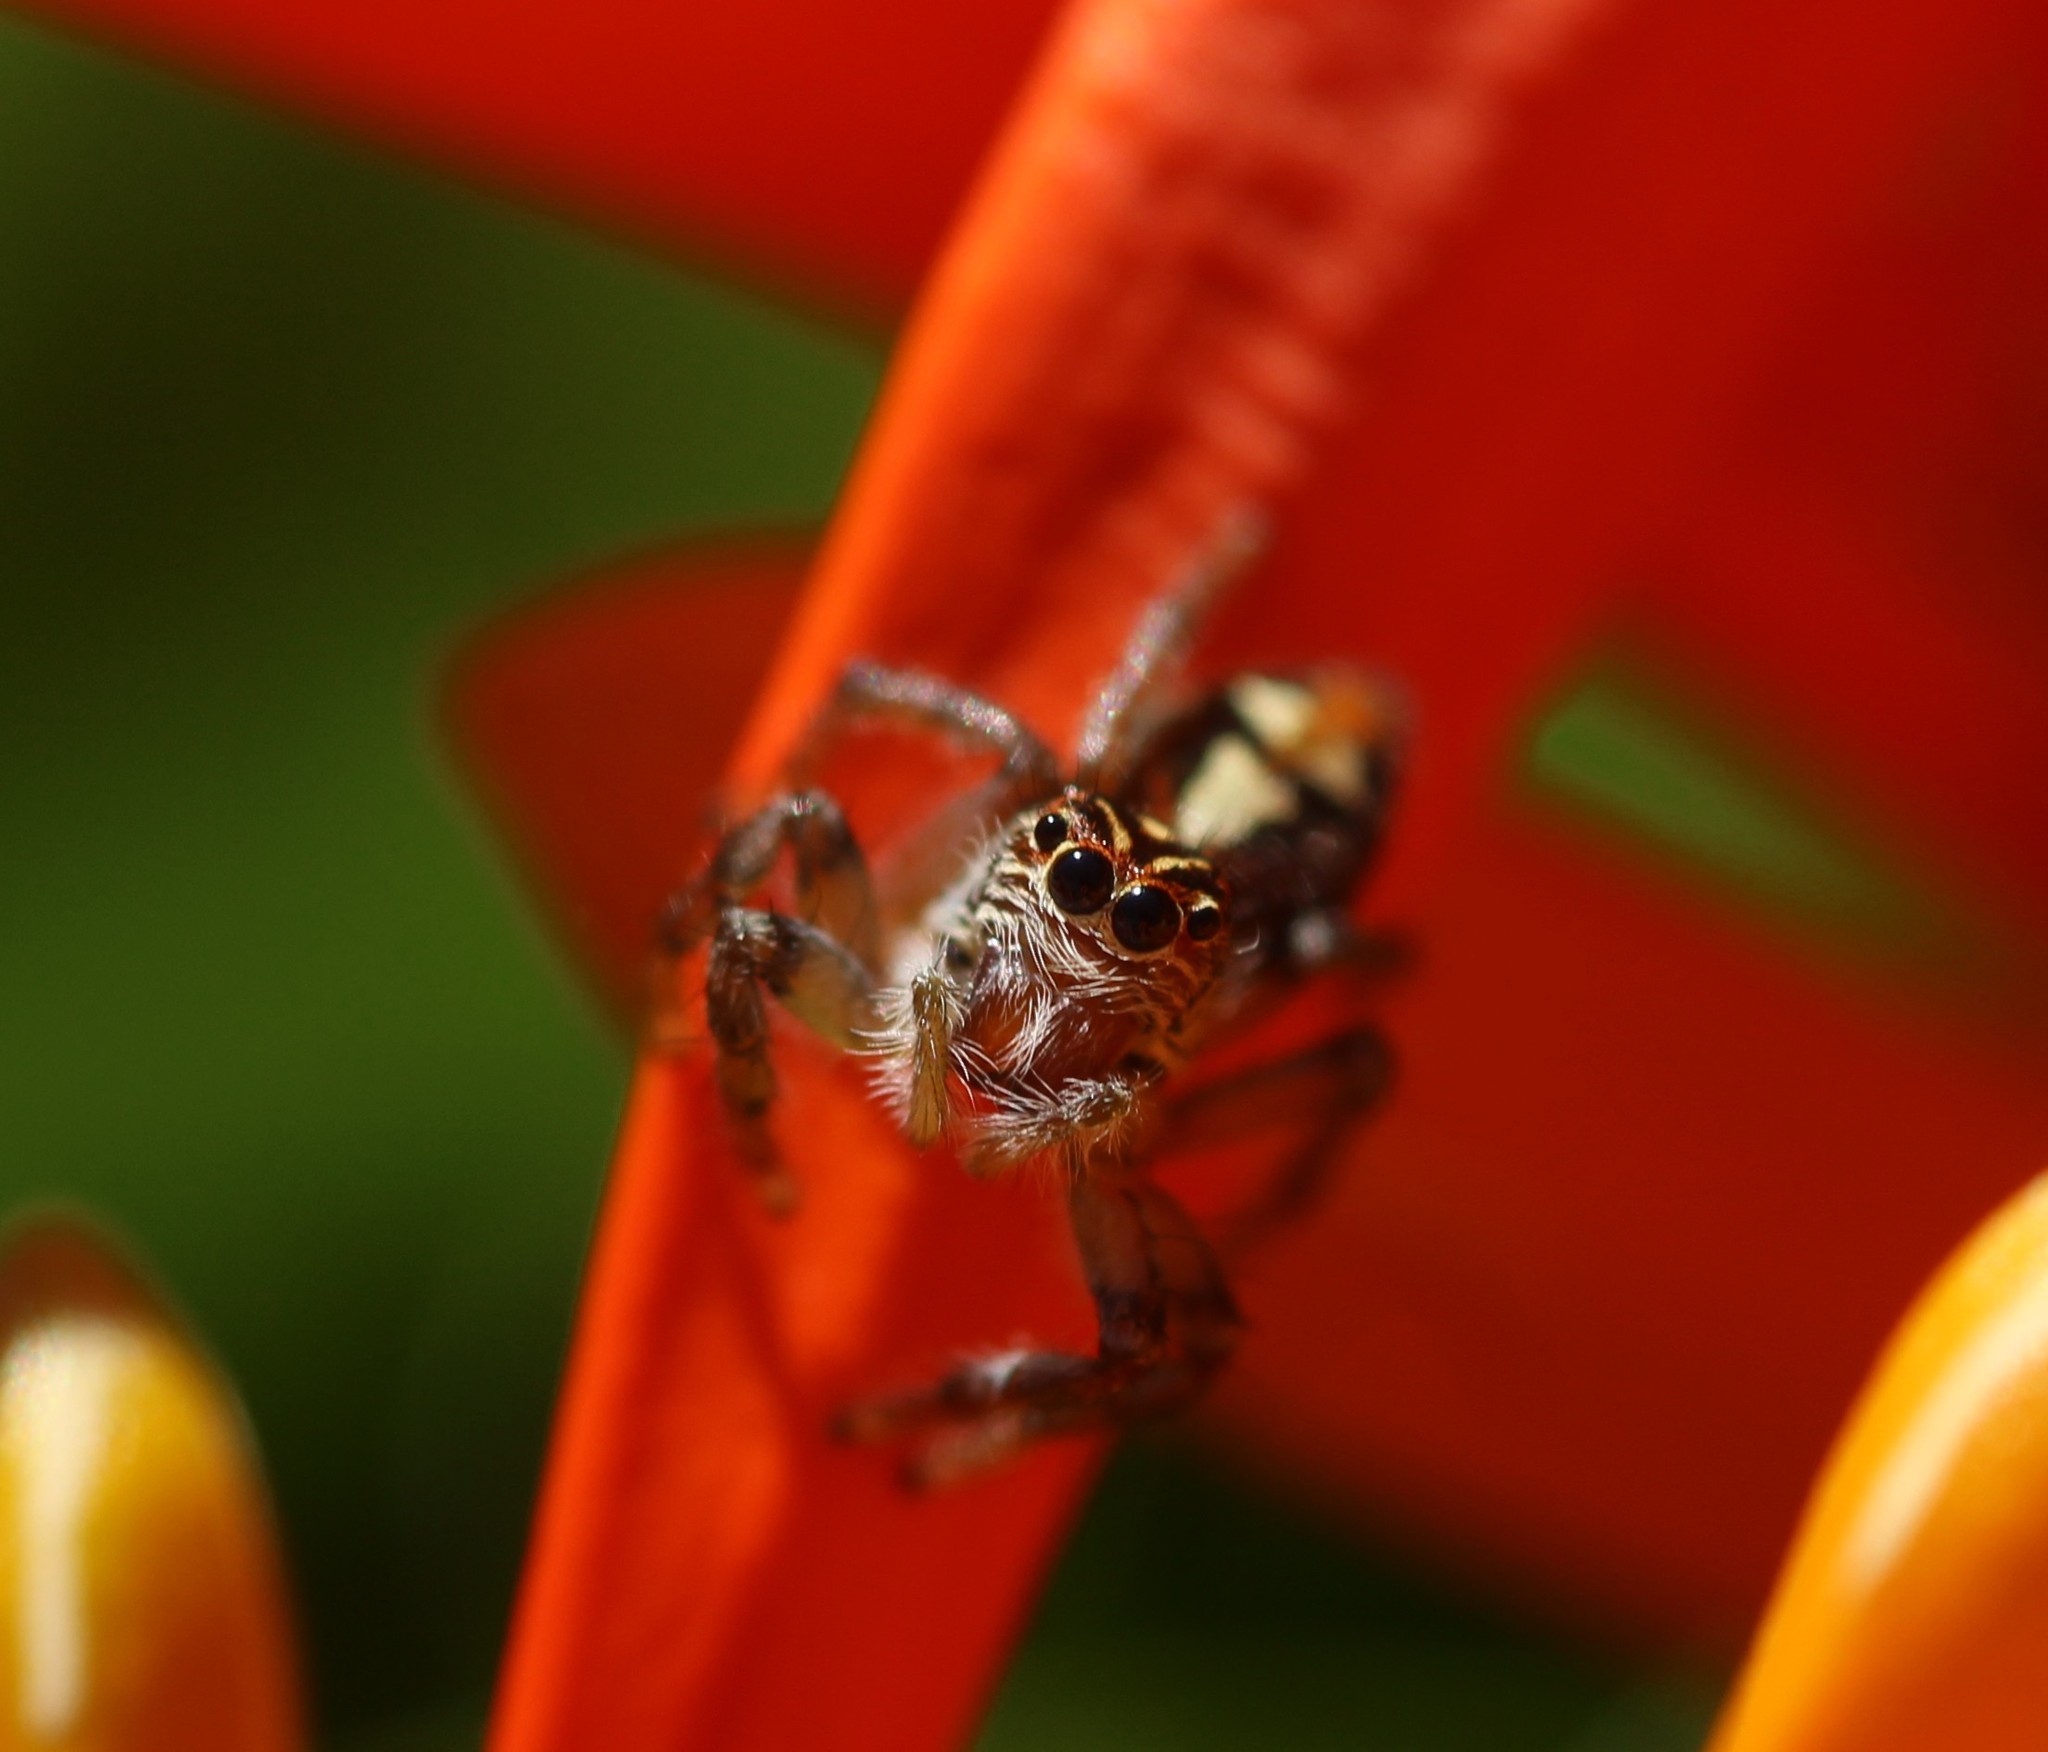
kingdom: Animalia
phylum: Arthropoda
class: Arachnida
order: Araneae
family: Salticidae
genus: Frigga
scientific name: Frigga quintensis
